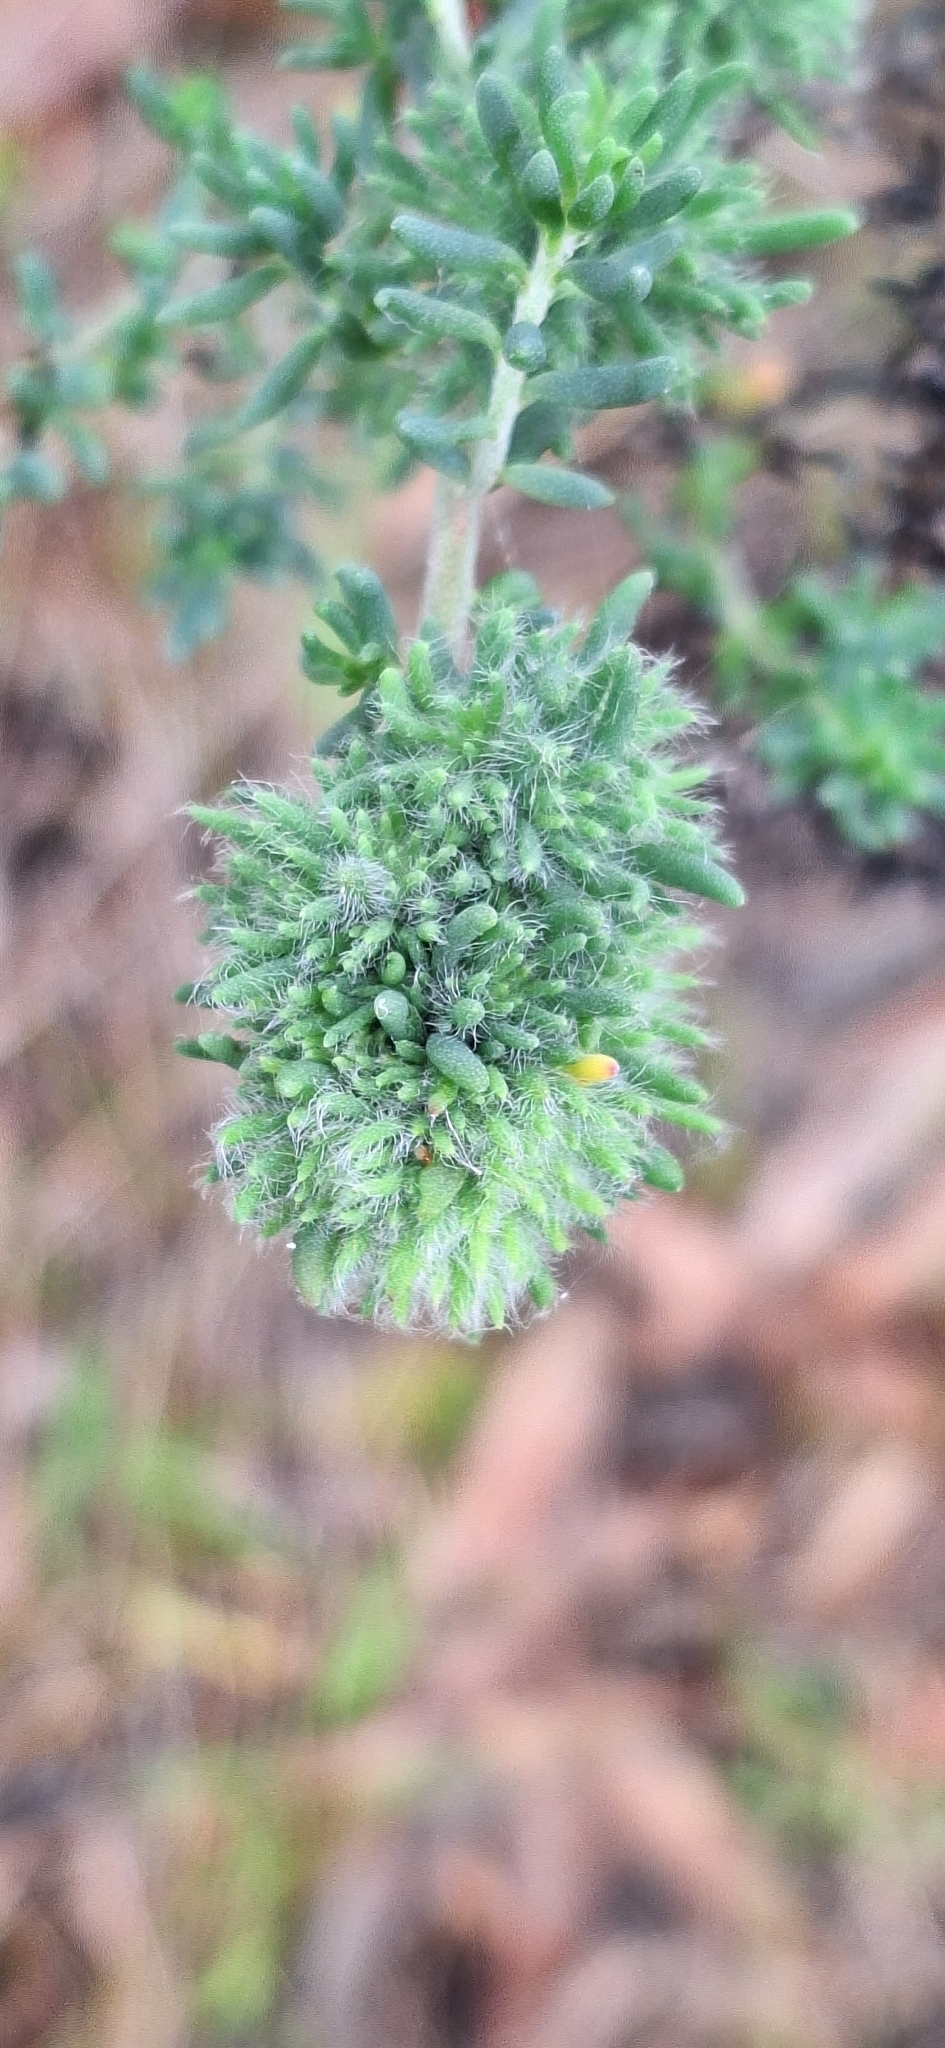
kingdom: Animalia
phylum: Arthropoda
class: Insecta
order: Diptera
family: Cecidomyiidae
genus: Dactylasioptera
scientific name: Dactylasioptera milnae
